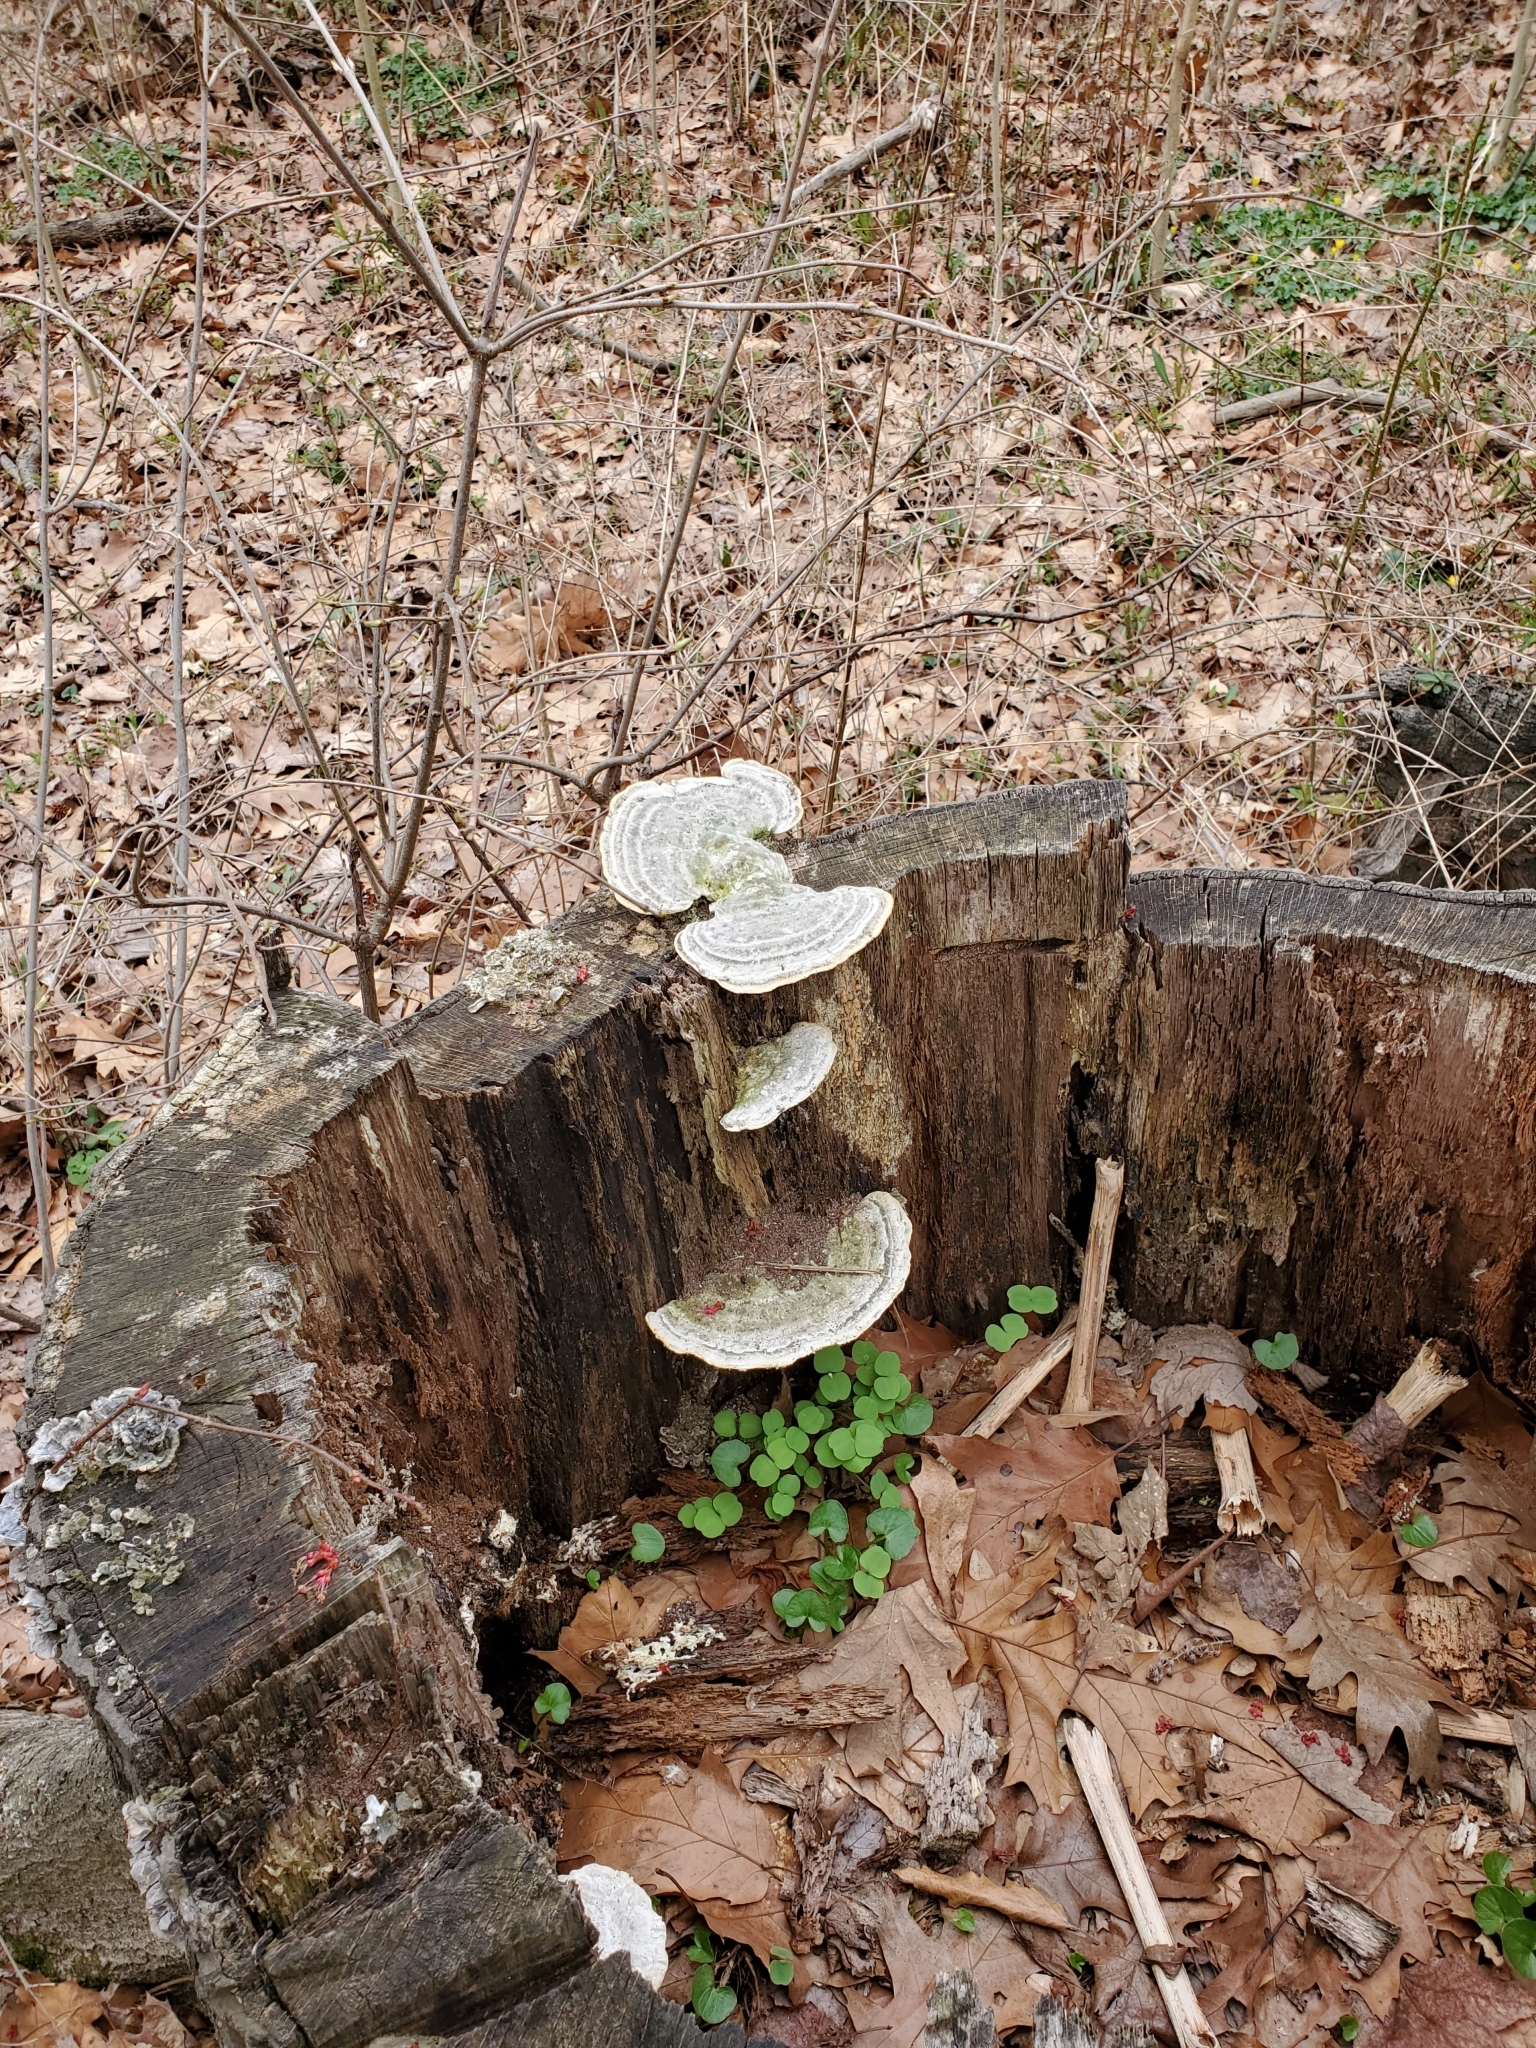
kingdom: Fungi
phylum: Basidiomycota
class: Agaricomycetes
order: Polyporales
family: Polyporaceae
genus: Trametes
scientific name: Trametes gibbosa
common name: Lumpy bracket
